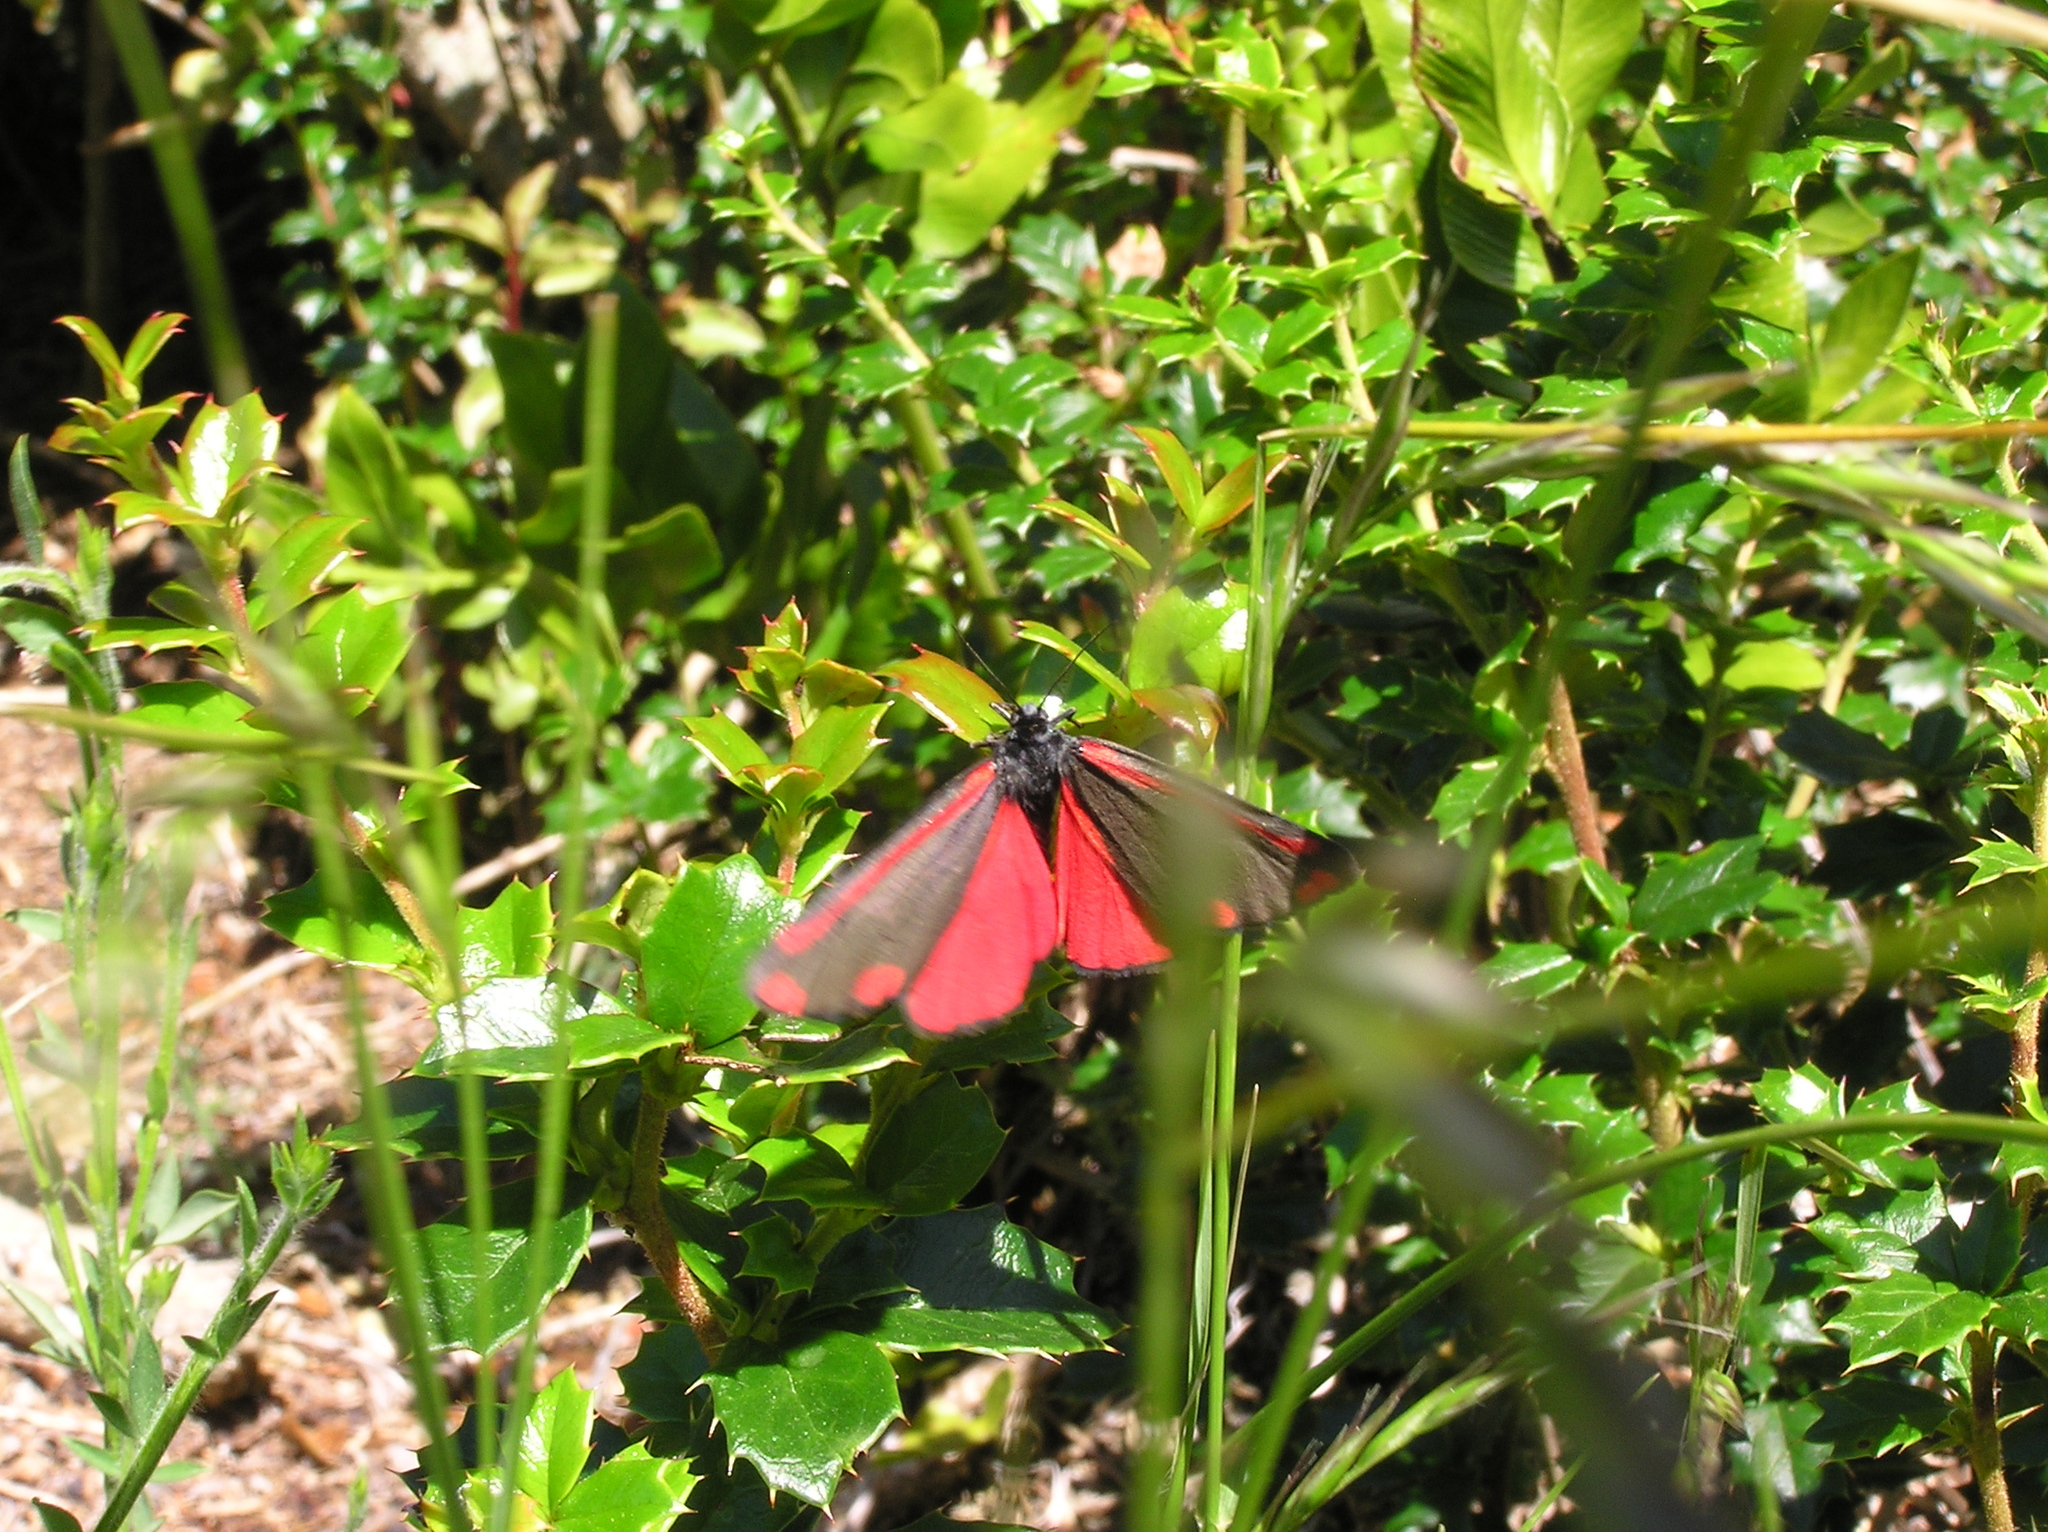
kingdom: Animalia
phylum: Arthropoda
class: Insecta
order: Lepidoptera
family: Erebidae
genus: Tyria
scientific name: Tyria jacobaeae
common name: Cinnabar
